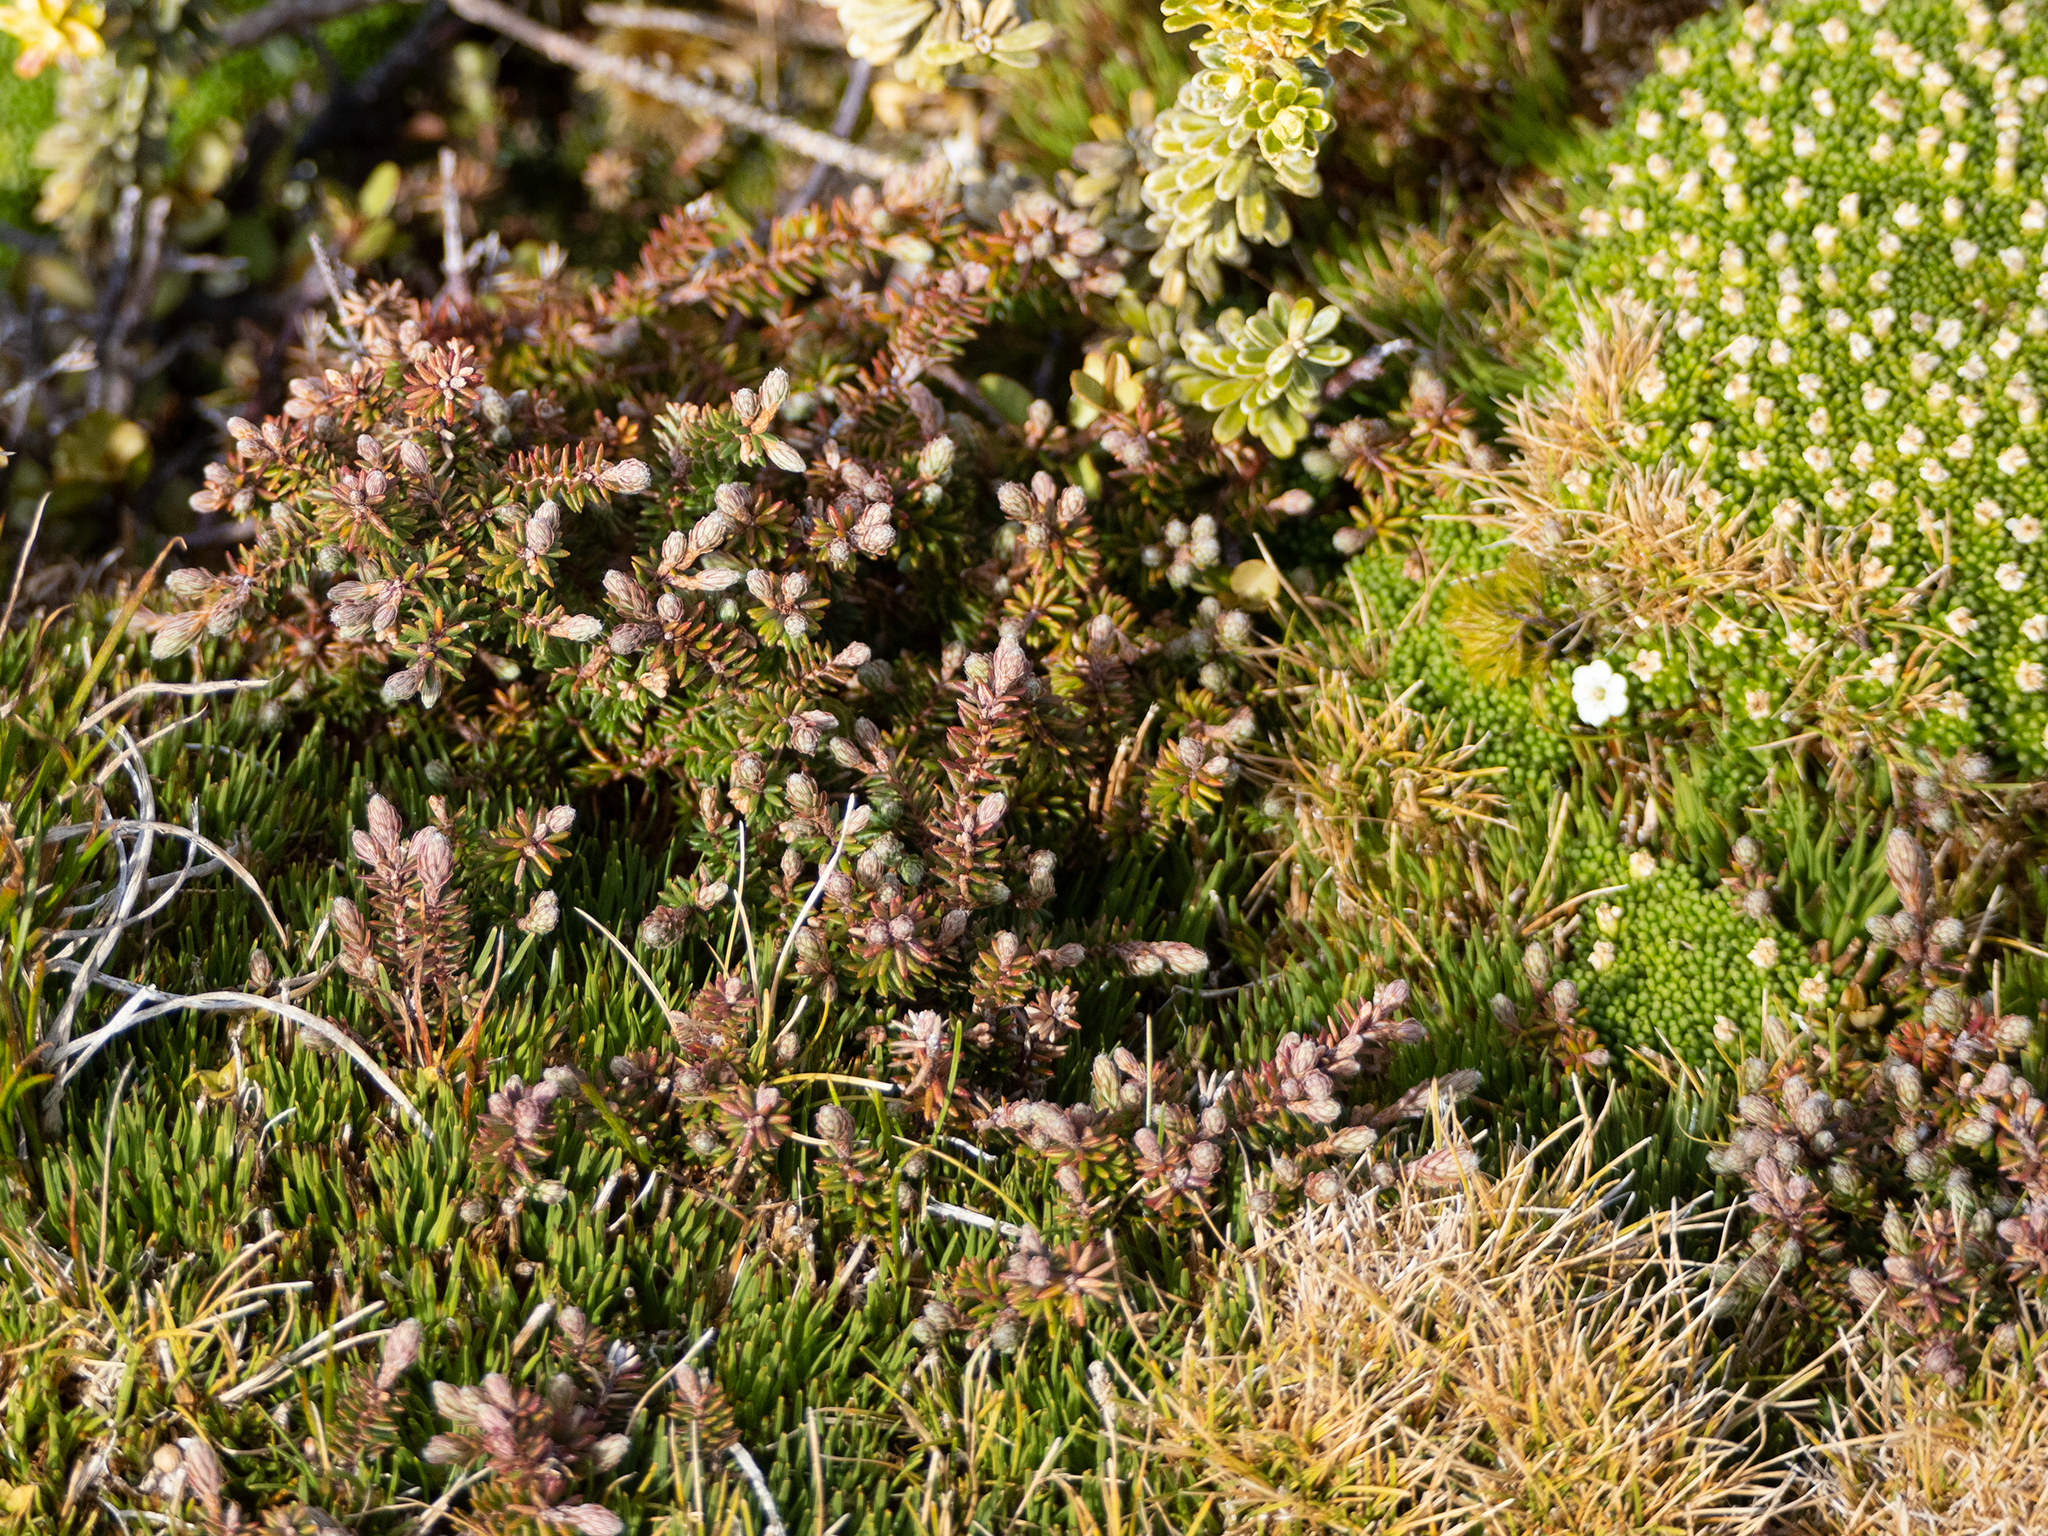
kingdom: Plantae
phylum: Tracheophyta
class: Magnoliopsida
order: Ericales
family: Ericaceae
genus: Androstoma
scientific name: Androstoma empetrifolia
